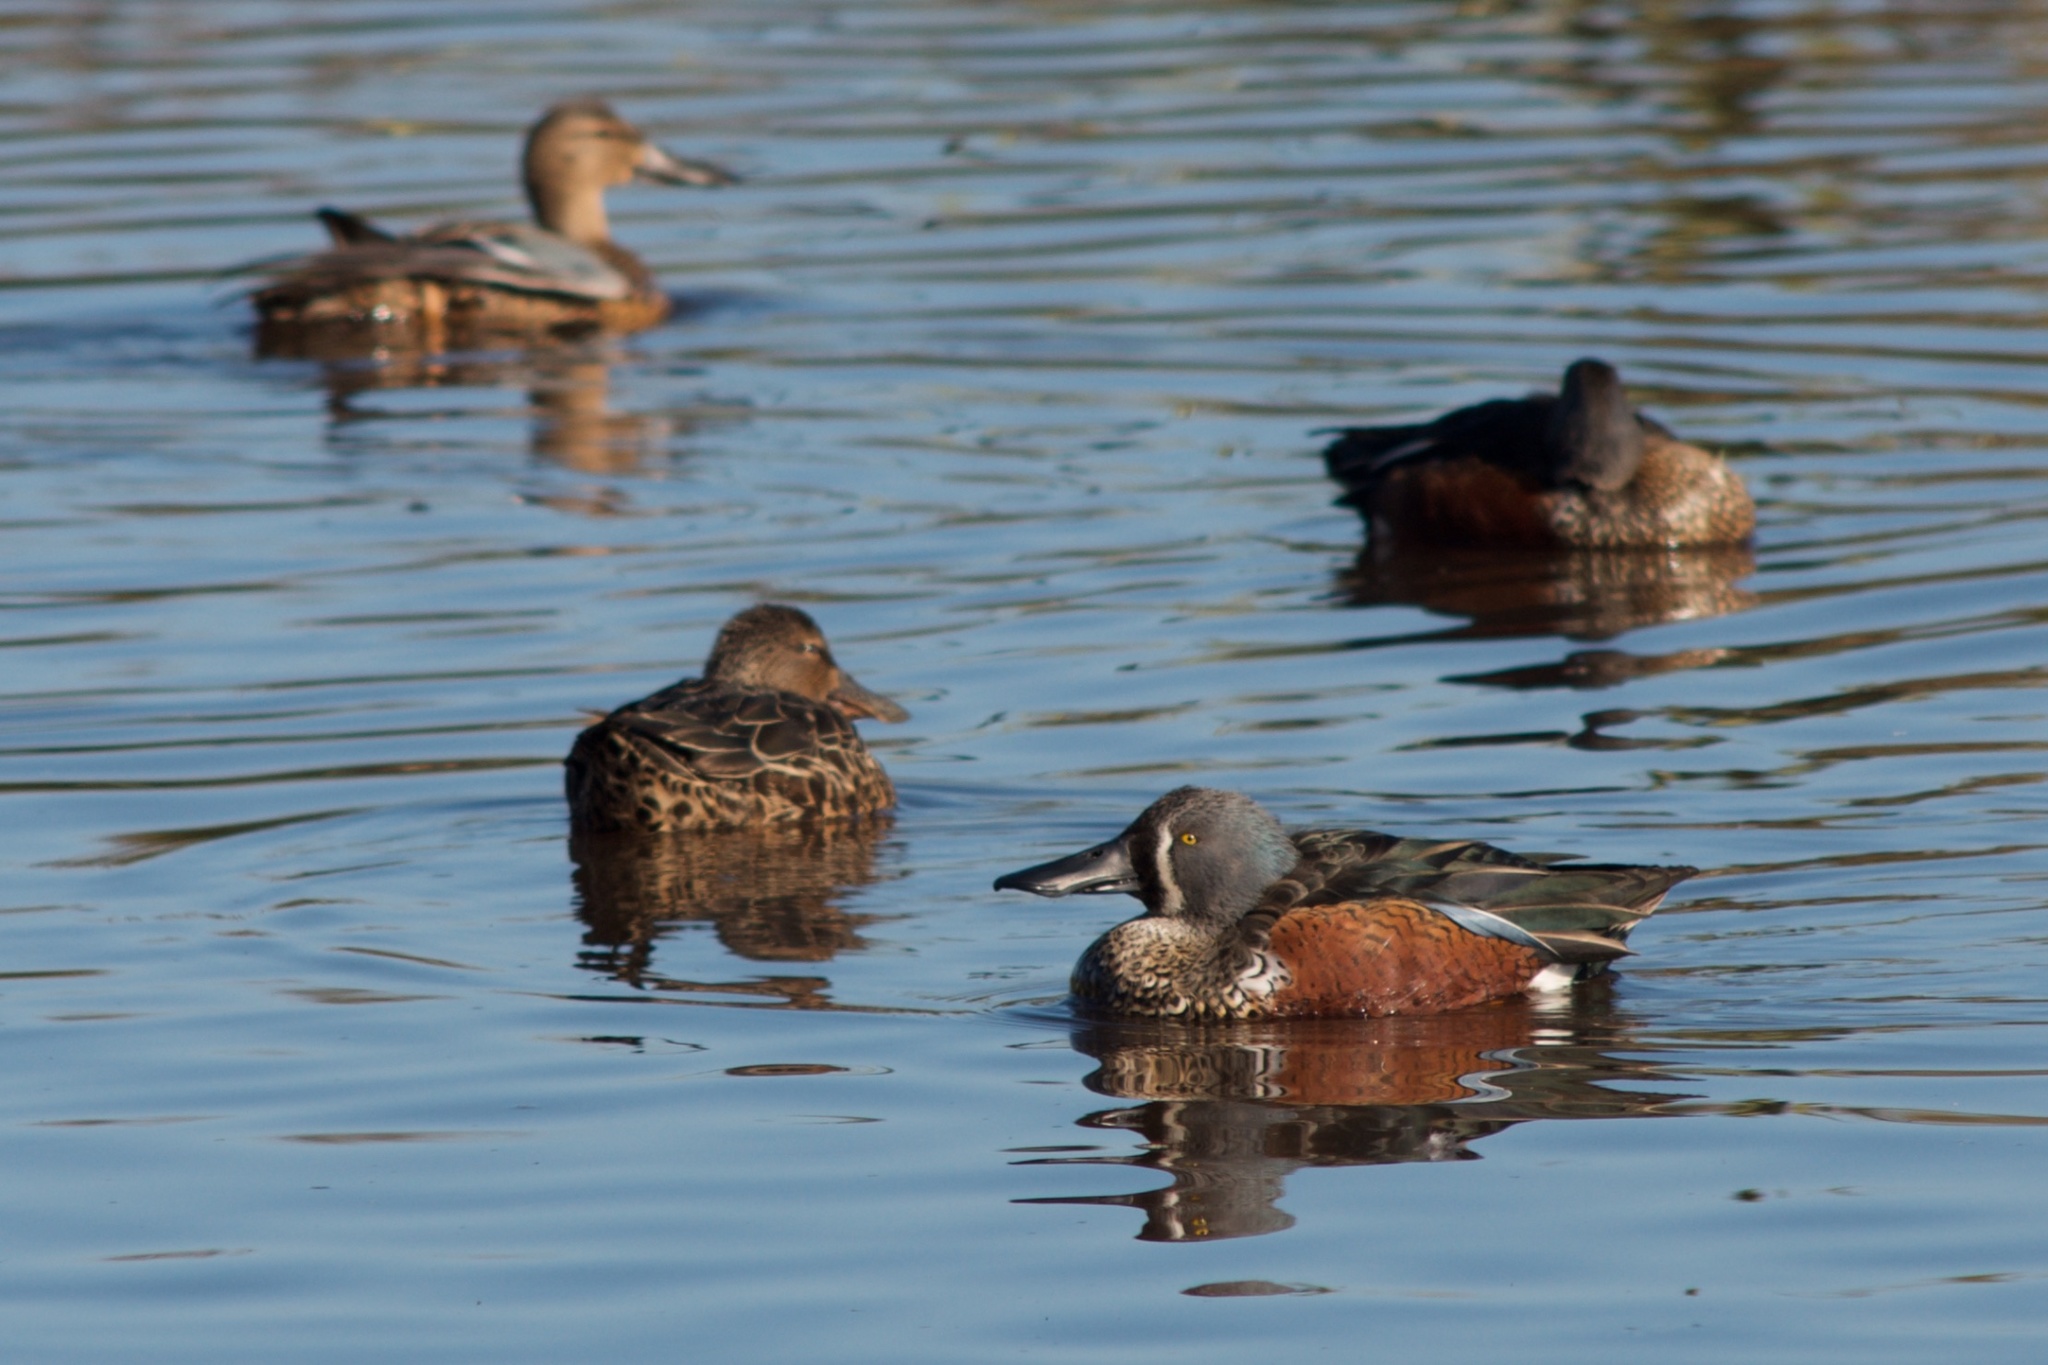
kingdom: Animalia
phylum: Chordata
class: Aves
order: Anseriformes
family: Anatidae
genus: Spatula
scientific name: Spatula rhynchotis
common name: Australian shoveler
